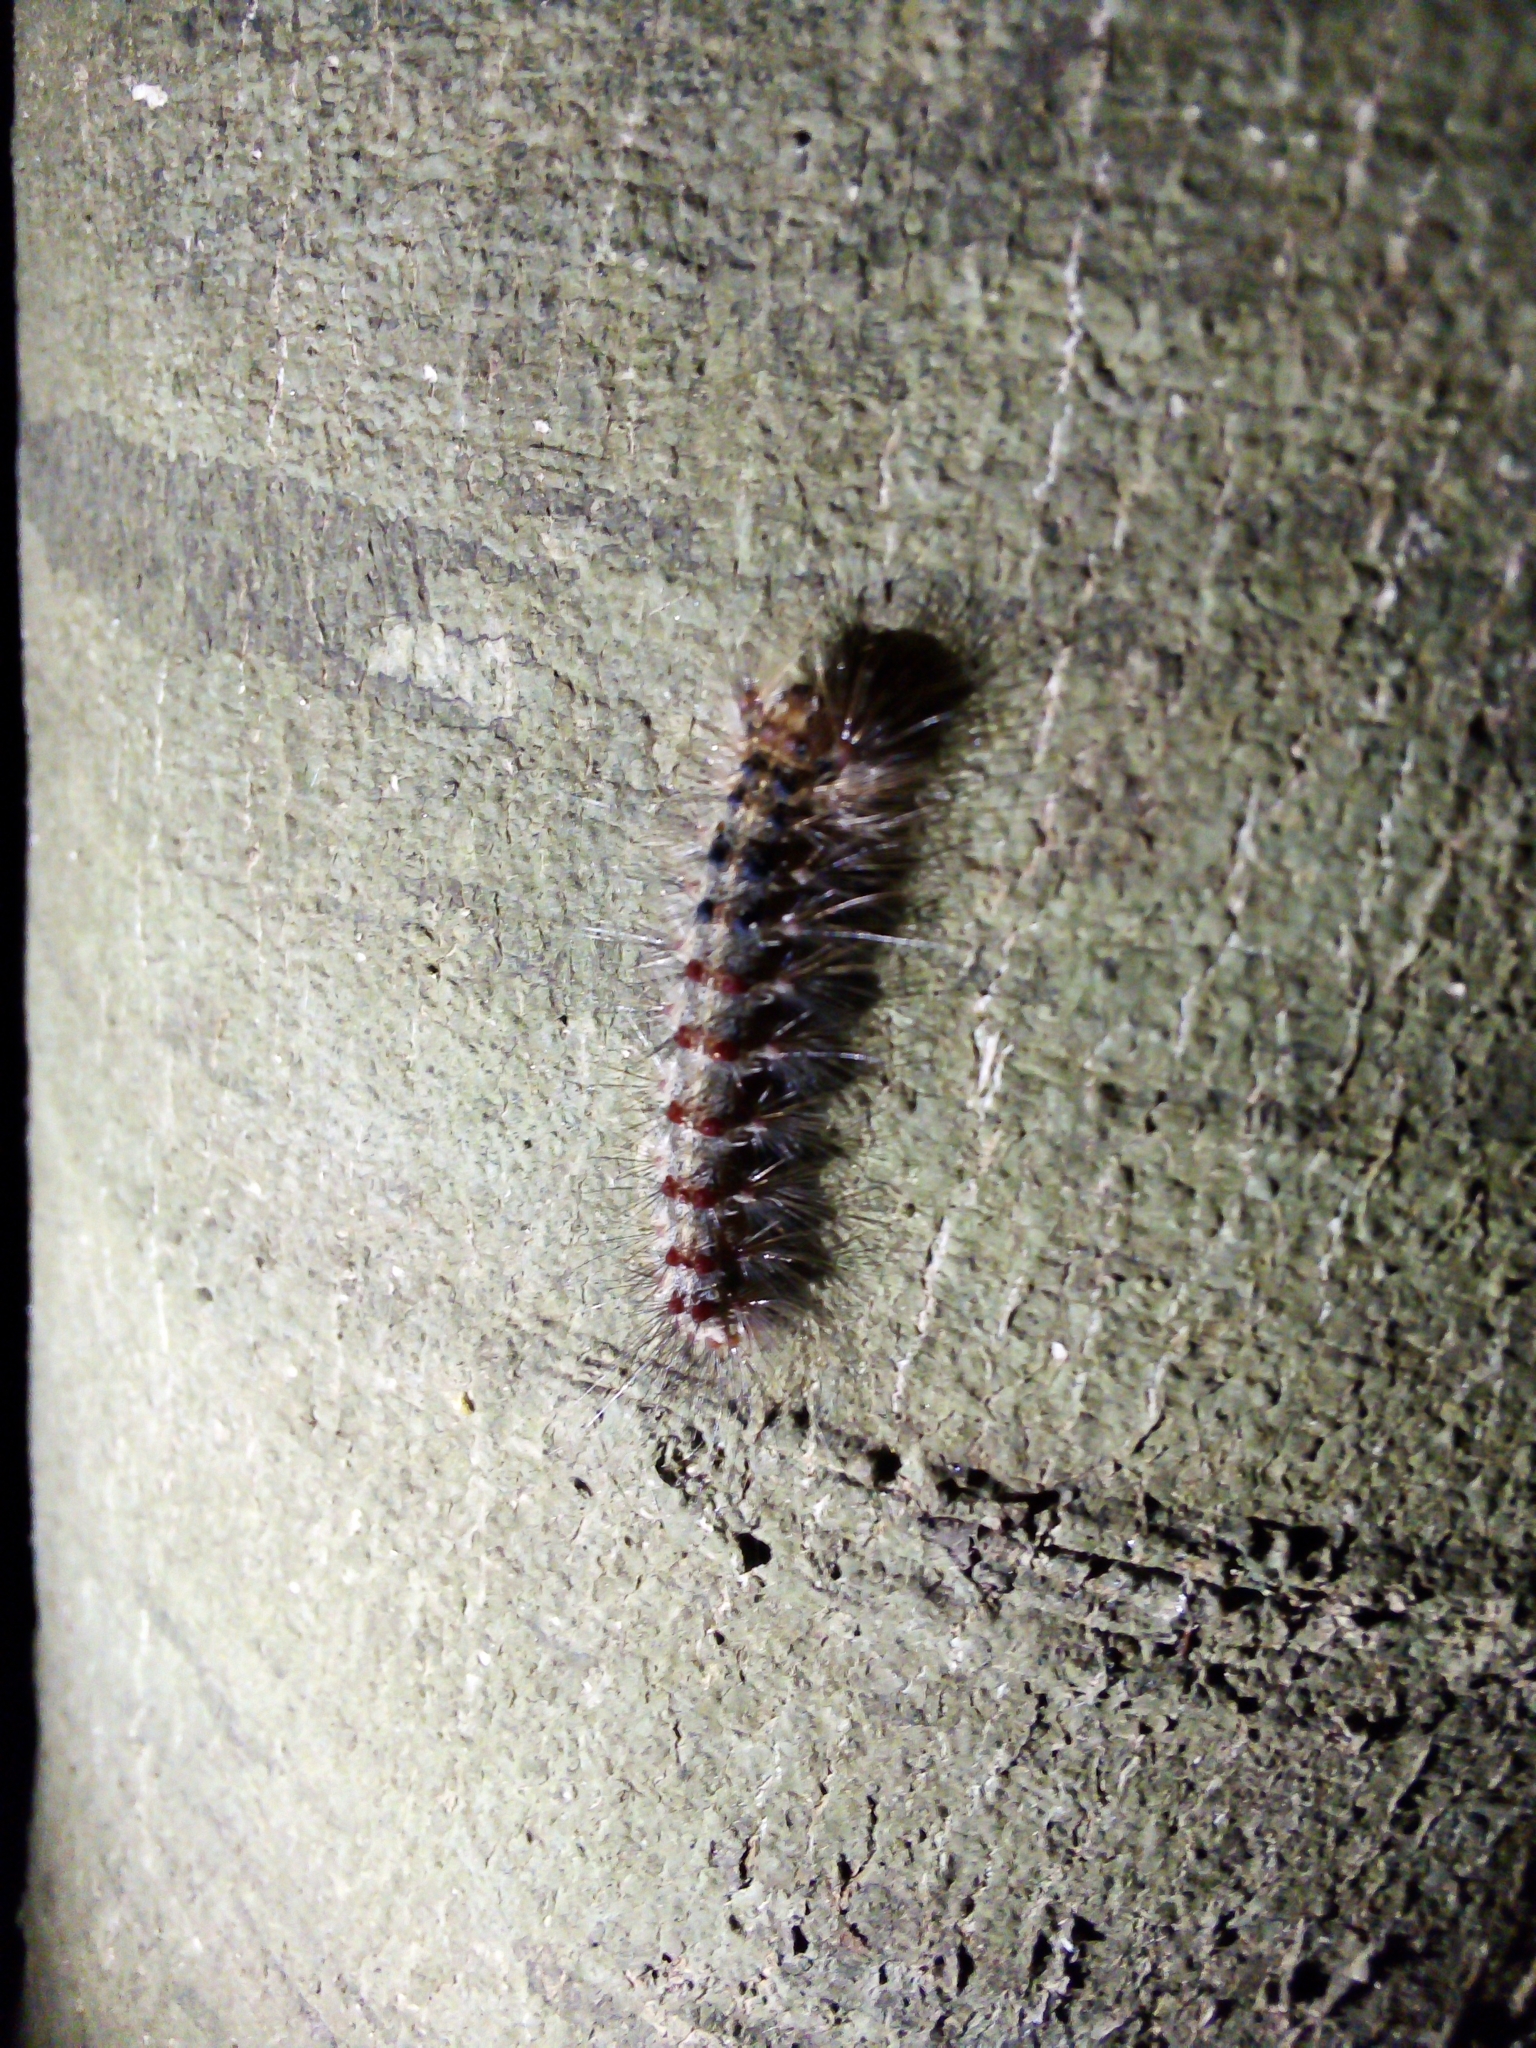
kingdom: Animalia
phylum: Arthropoda
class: Insecta
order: Lepidoptera
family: Erebidae
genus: Lymantria
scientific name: Lymantria dispar
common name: Gypsy moth
